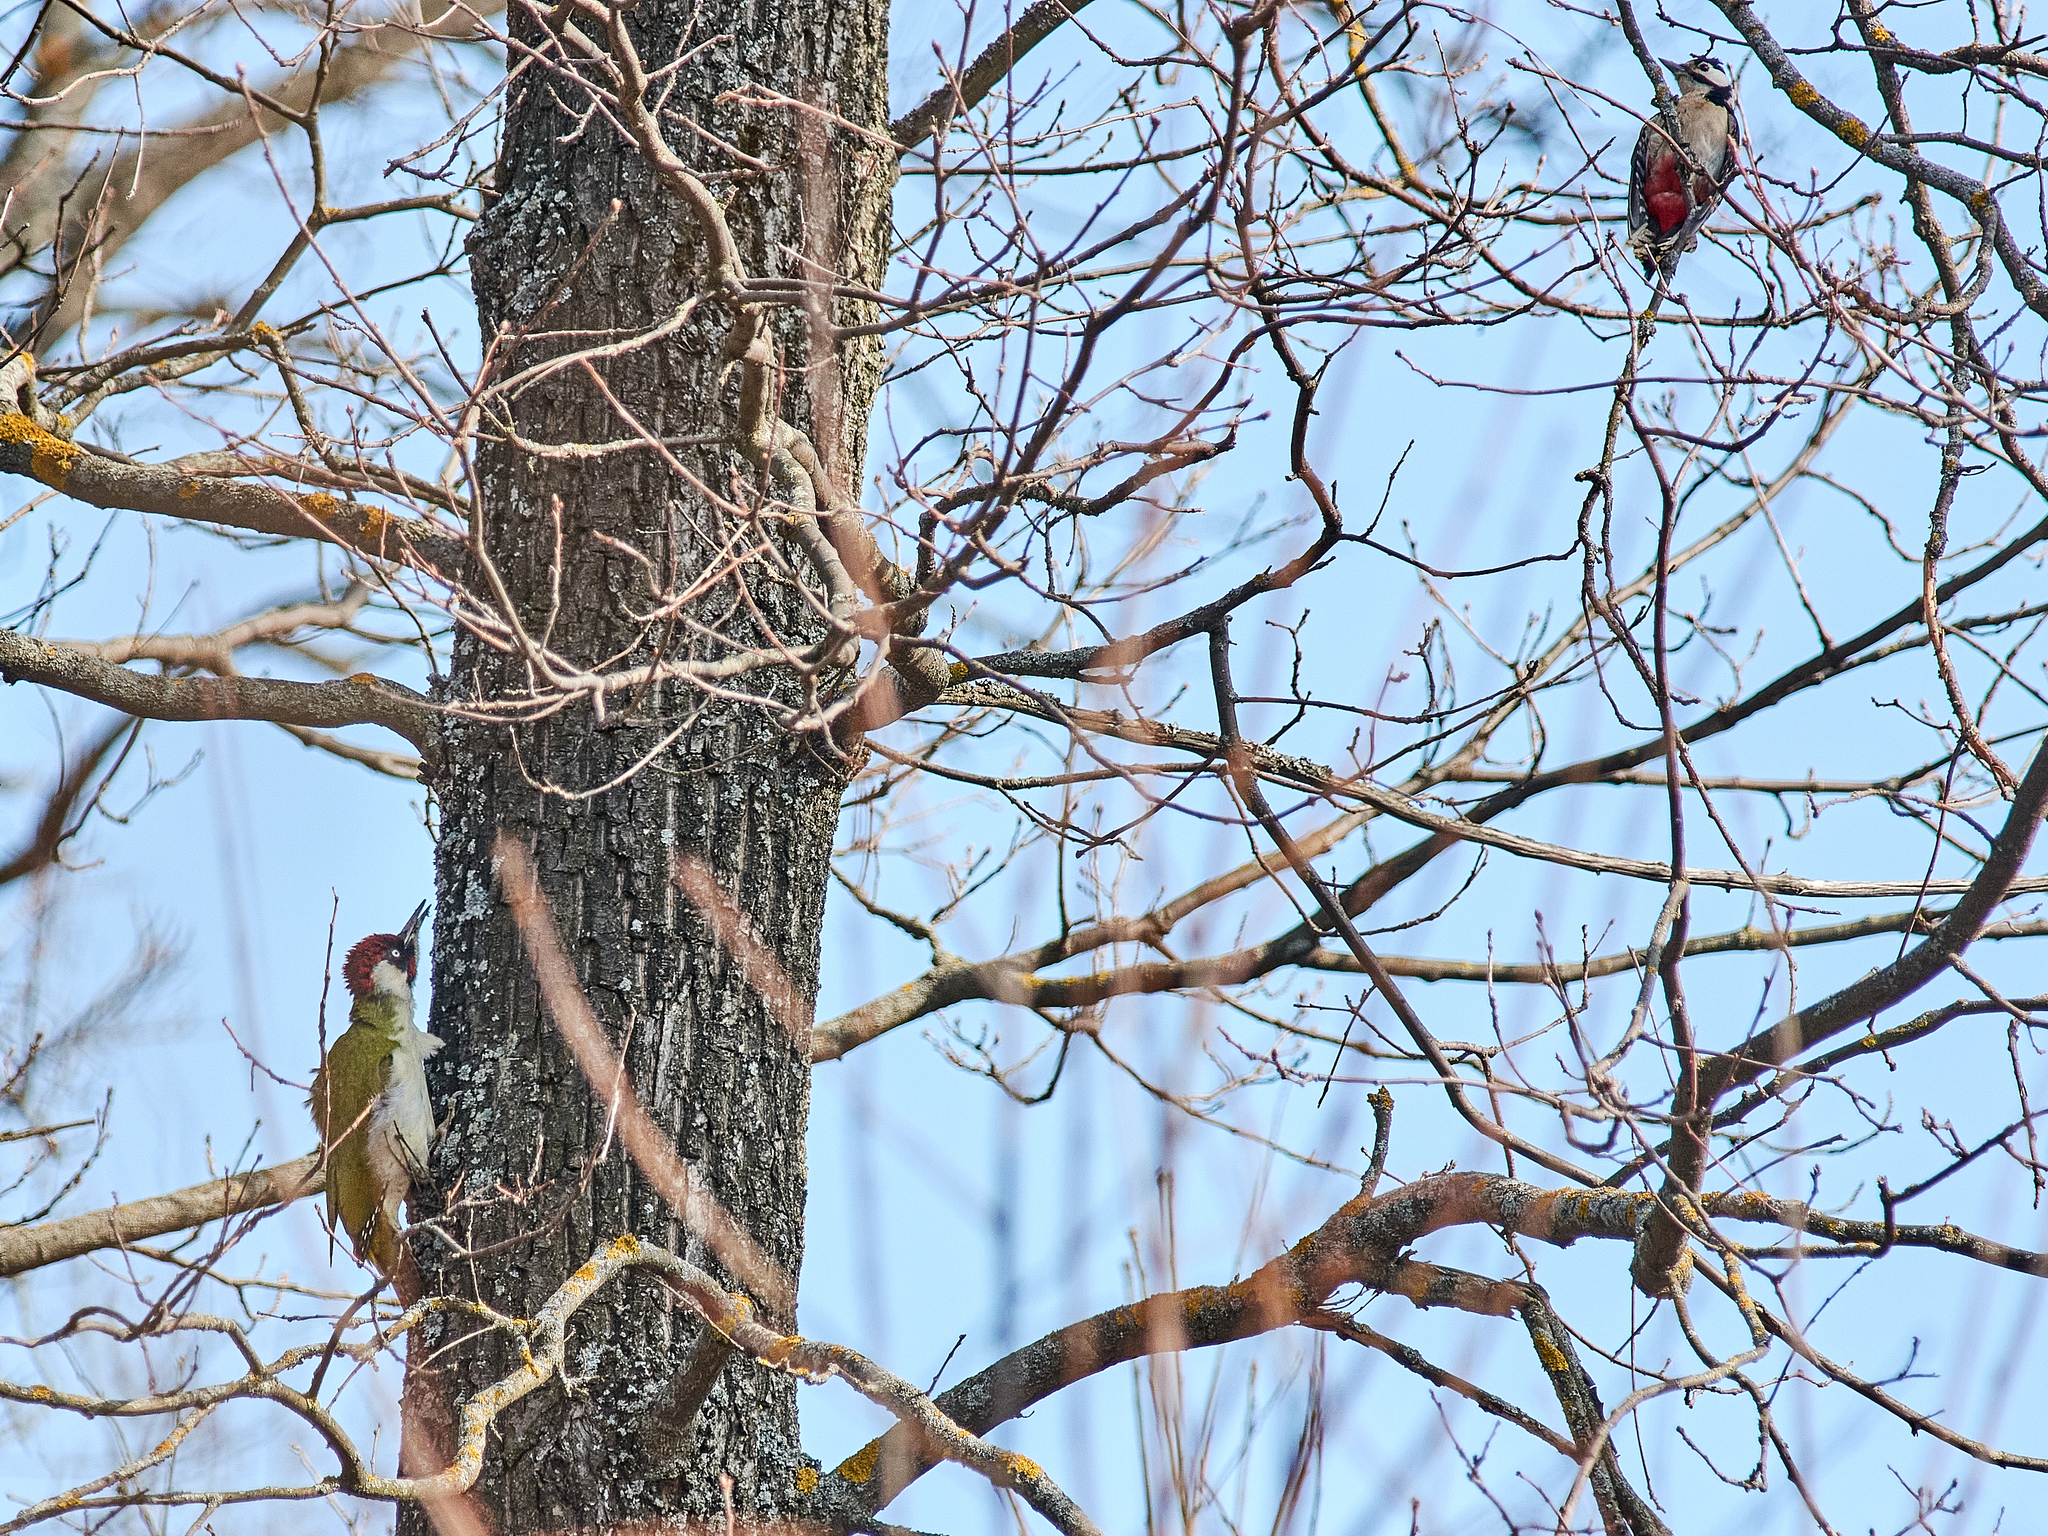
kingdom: Animalia
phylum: Chordata
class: Aves
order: Piciformes
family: Picidae
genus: Dendrocopos
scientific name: Dendrocopos major
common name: Great spotted woodpecker
